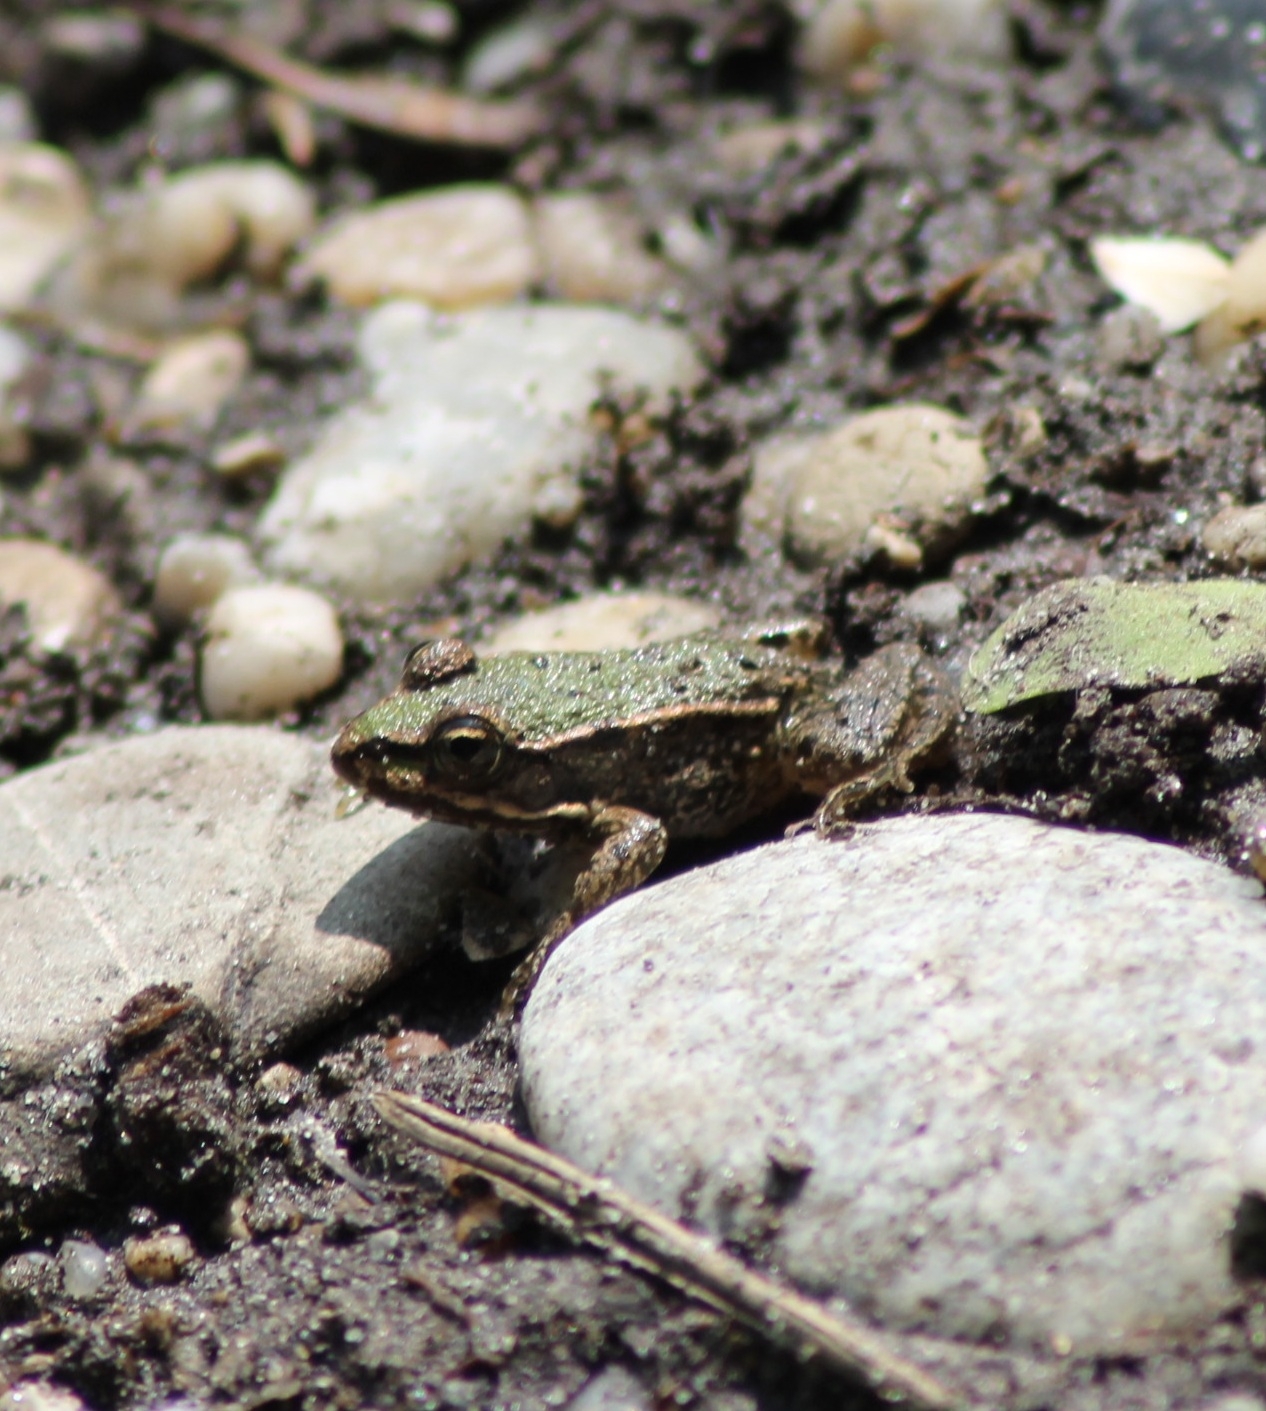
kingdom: Animalia
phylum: Chordata
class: Amphibia
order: Anura
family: Ranidae
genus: Pelophylax
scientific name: Pelophylax
